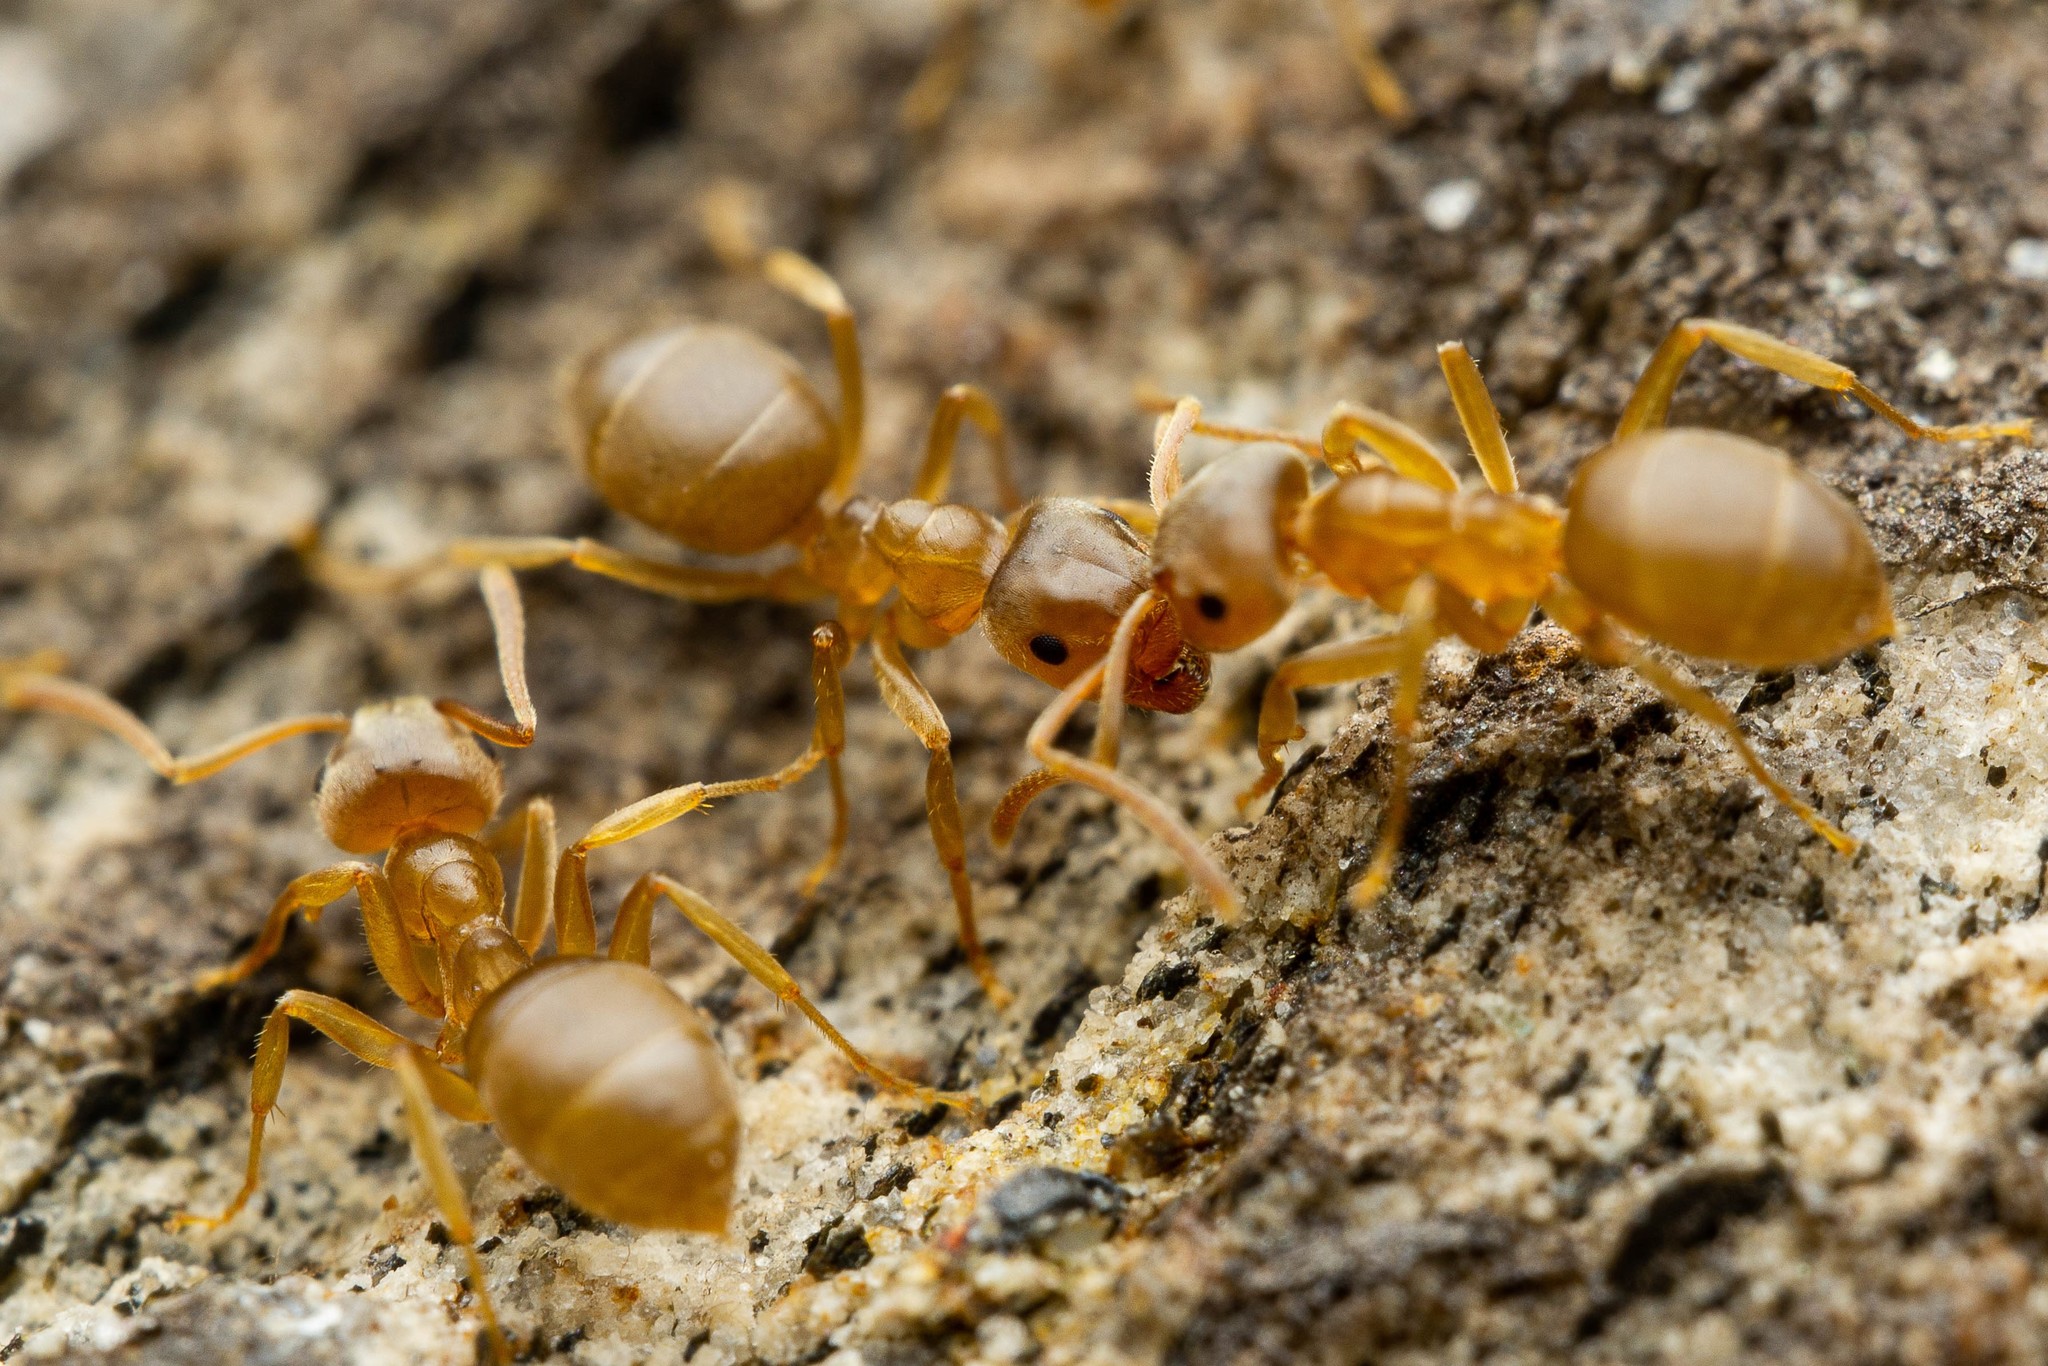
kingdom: Animalia
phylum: Arthropoda
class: Insecta
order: Hymenoptera
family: Formicidae
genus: Lasius
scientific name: Lasius pallitarsis
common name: Subterranean aphid-tending ant
